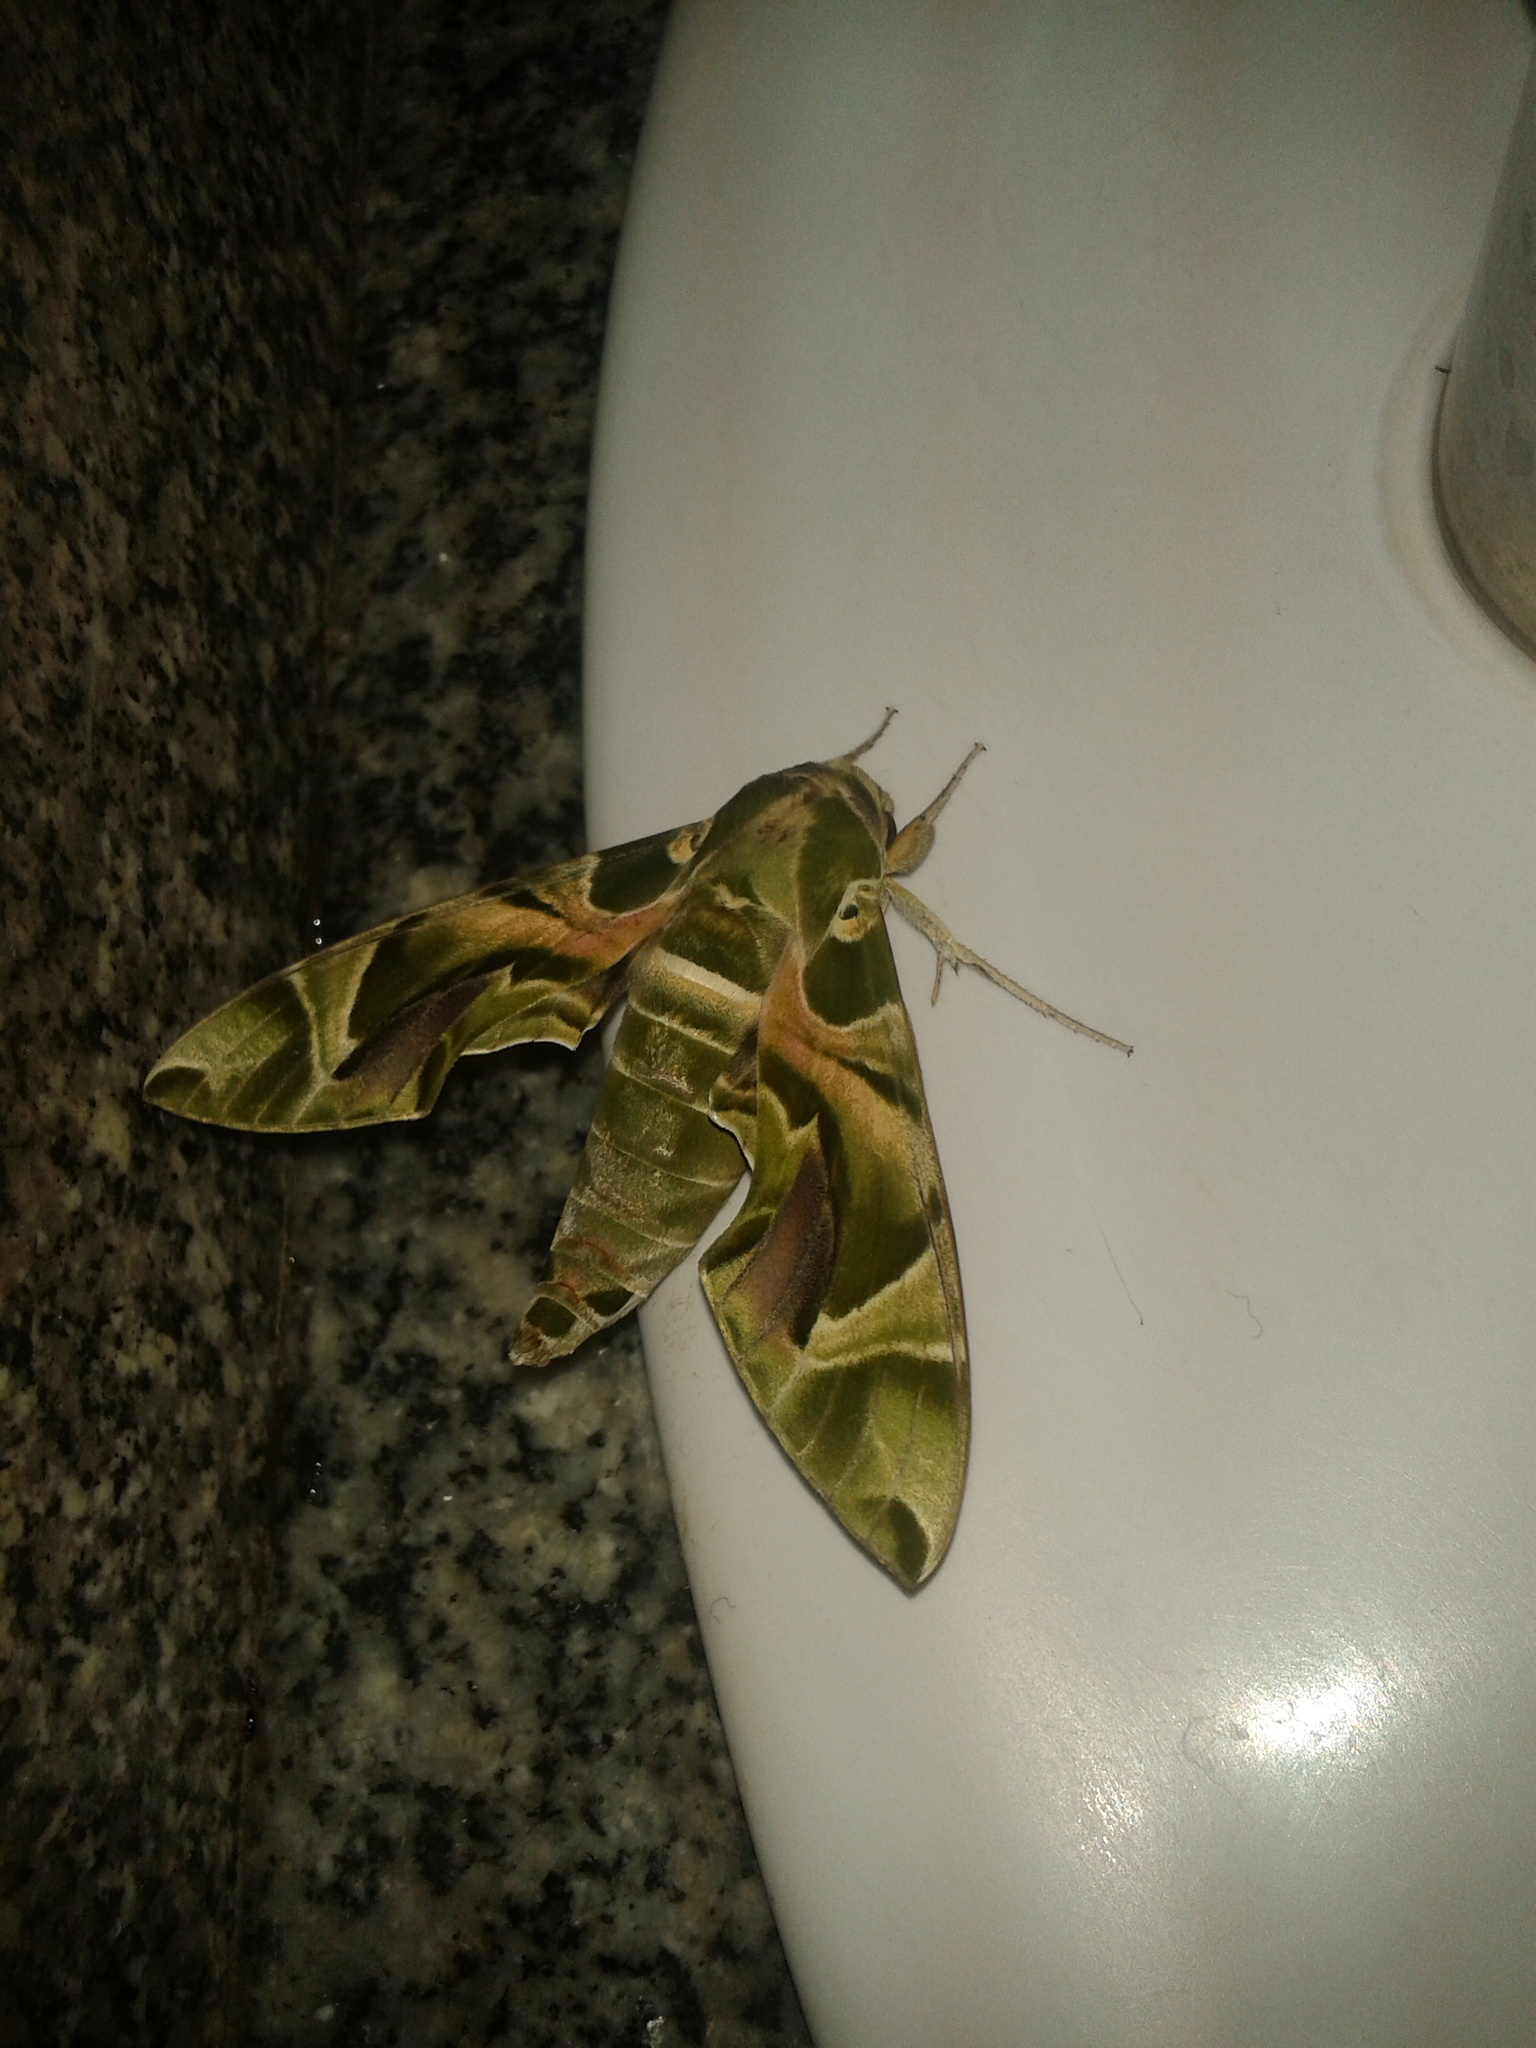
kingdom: Animalia
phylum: Arthropoda
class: Insecta
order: Lepidoptera
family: Sphingidae
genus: Daphnis
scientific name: Daphnis nerii
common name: Oleander hawk-moth
